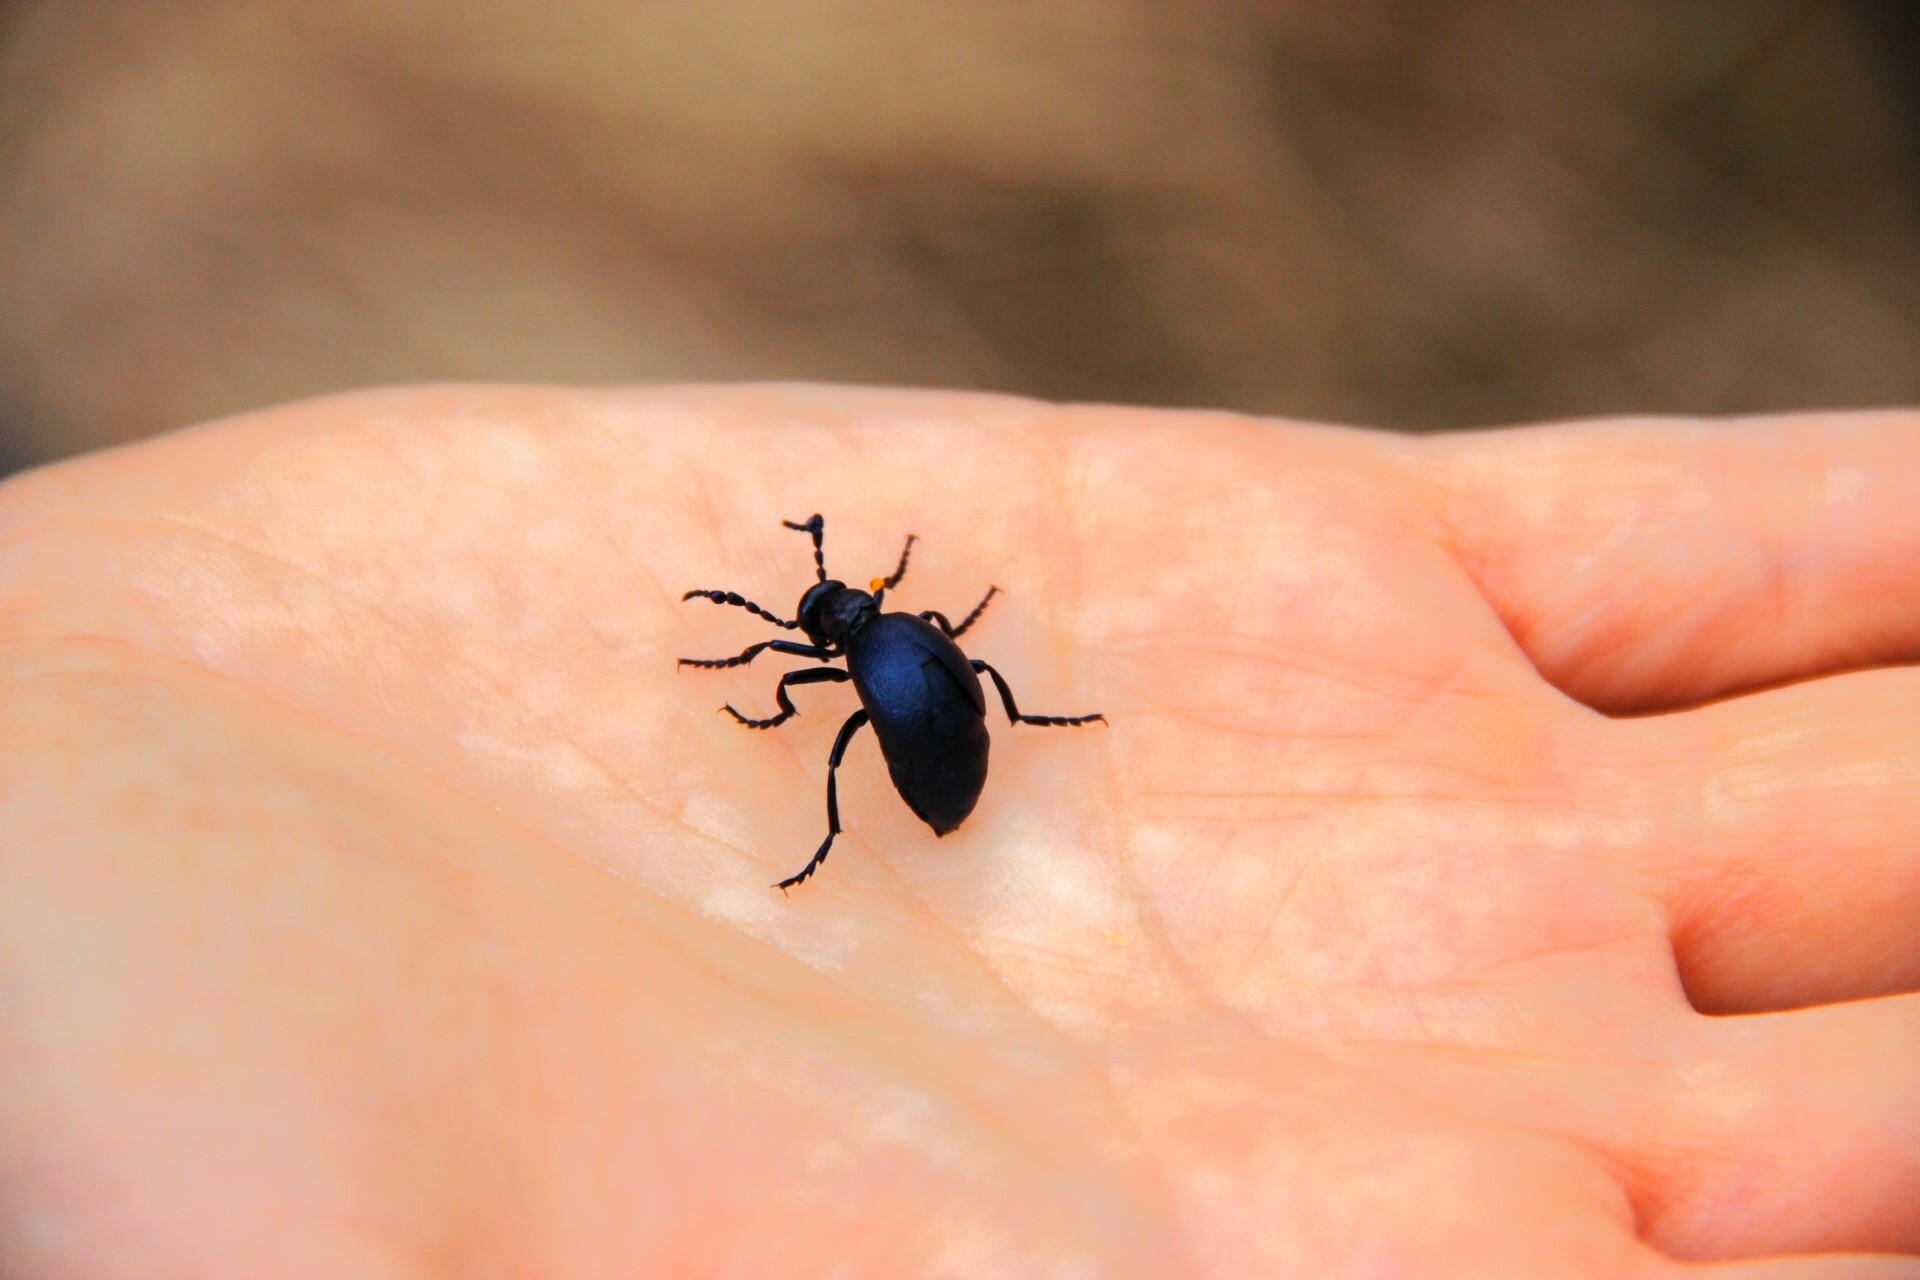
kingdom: Animalia
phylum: Arthropoda
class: Insecta
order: Coleoptera
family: Meloidae
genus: Meloe
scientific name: Meloe violaceus
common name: Violet oil-beetle
